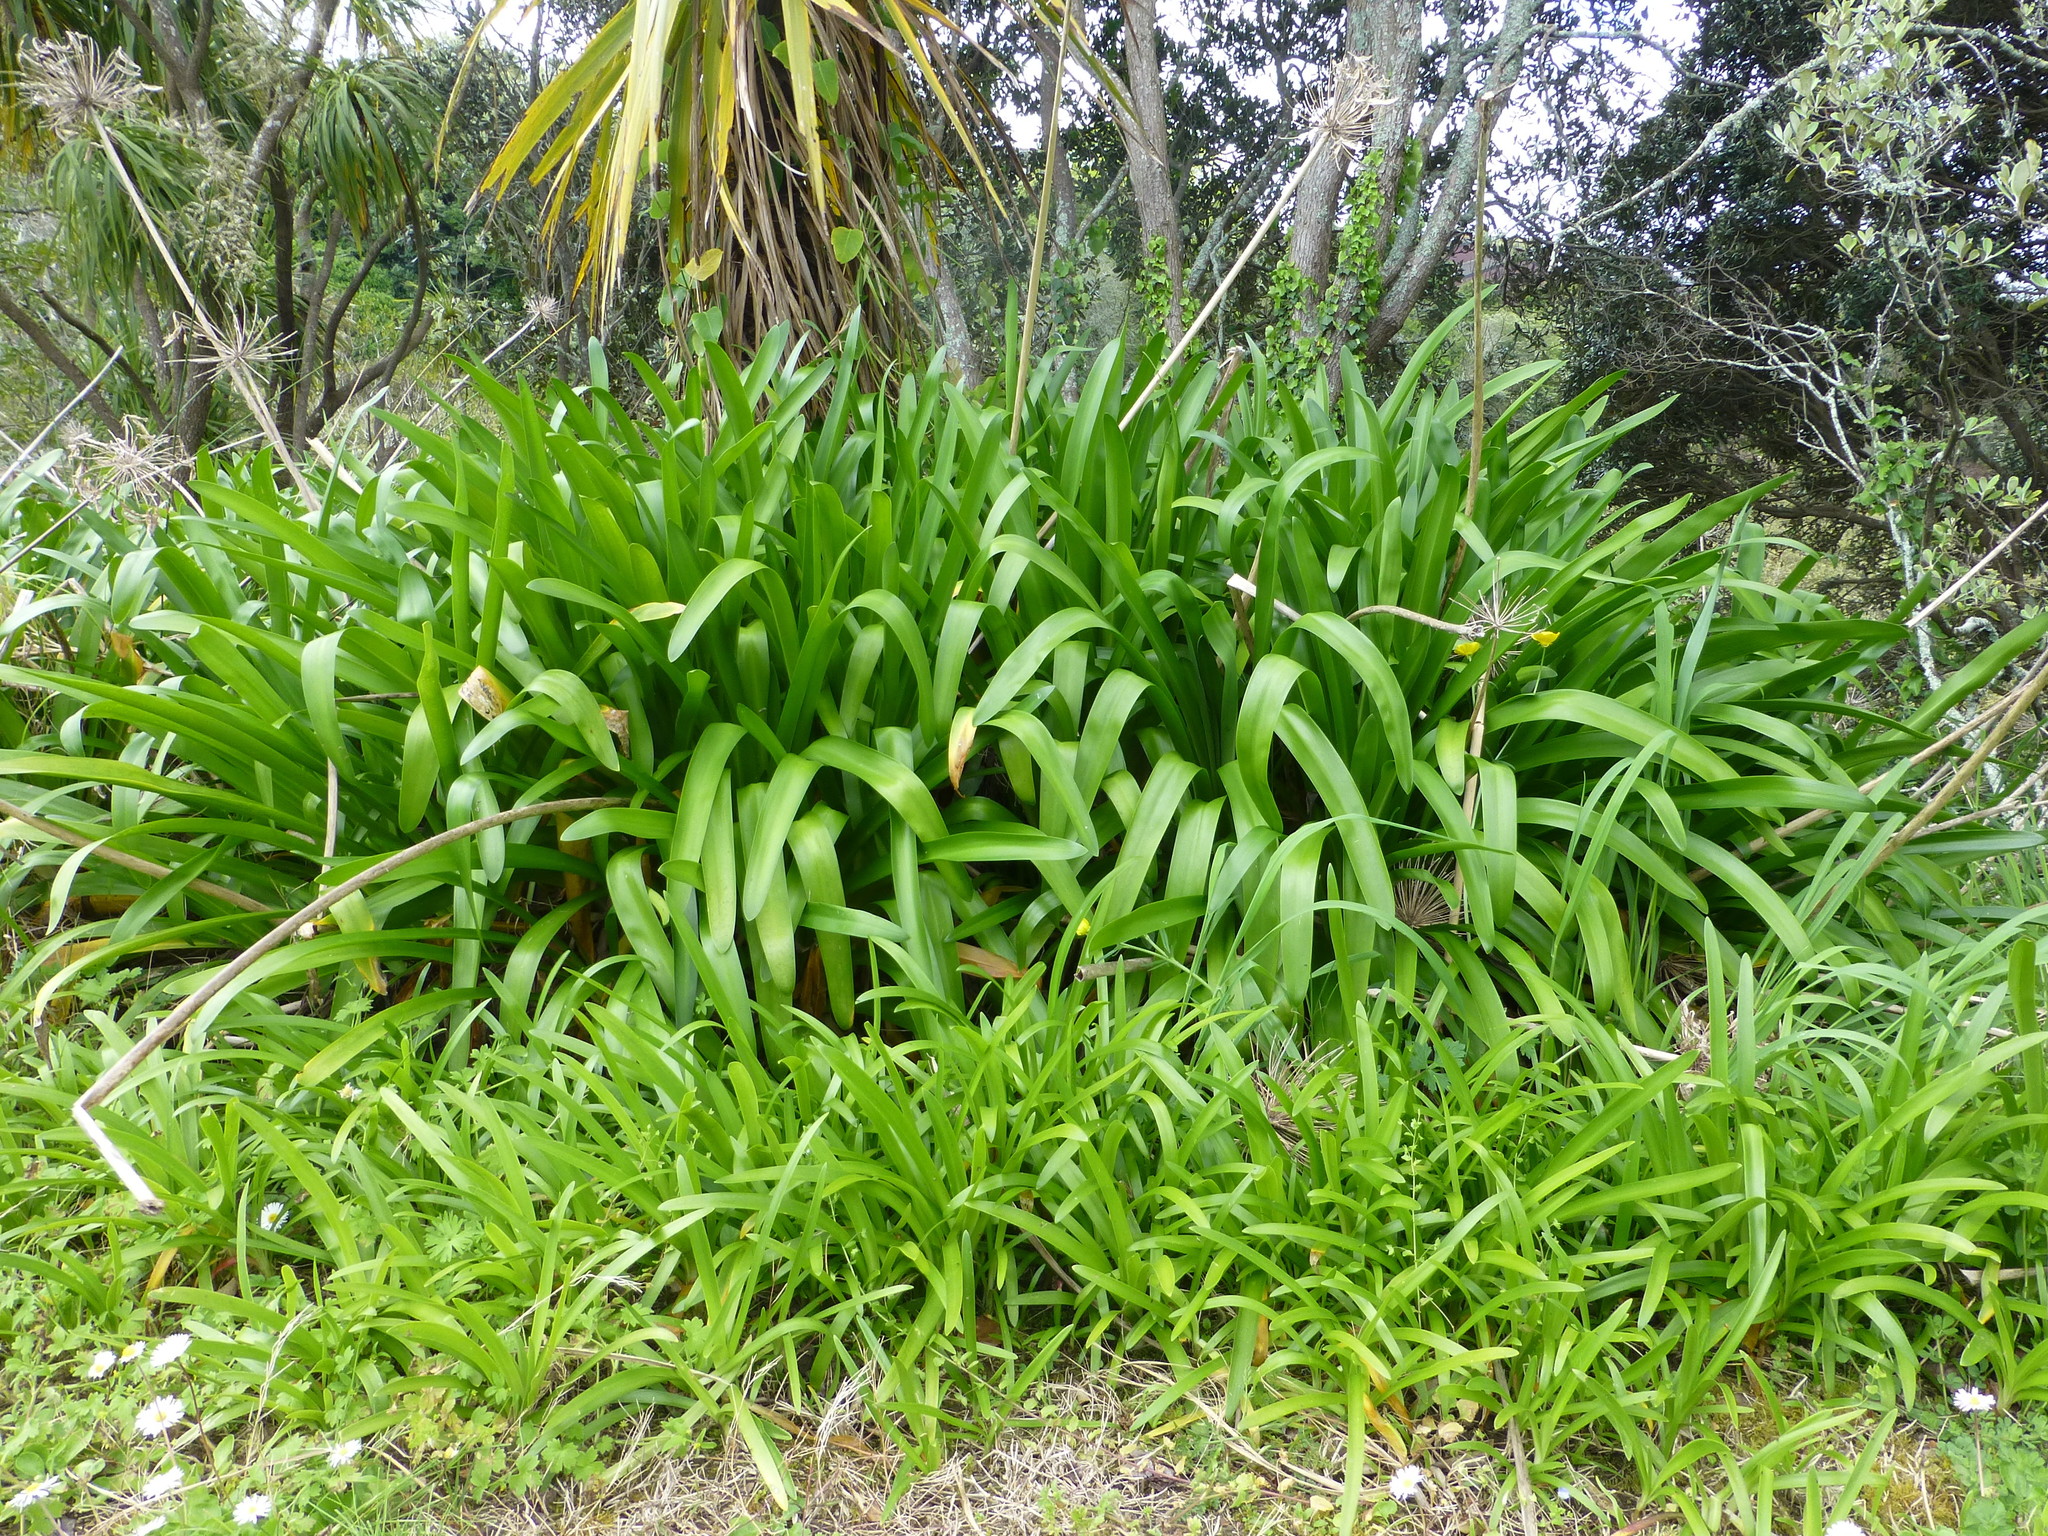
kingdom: Plantae
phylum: Tracheophyta
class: Liliopsida
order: Asparagales
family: Amaryllidaceae
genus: Agapanthus
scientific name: Agapanthus praecox
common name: African-lily
